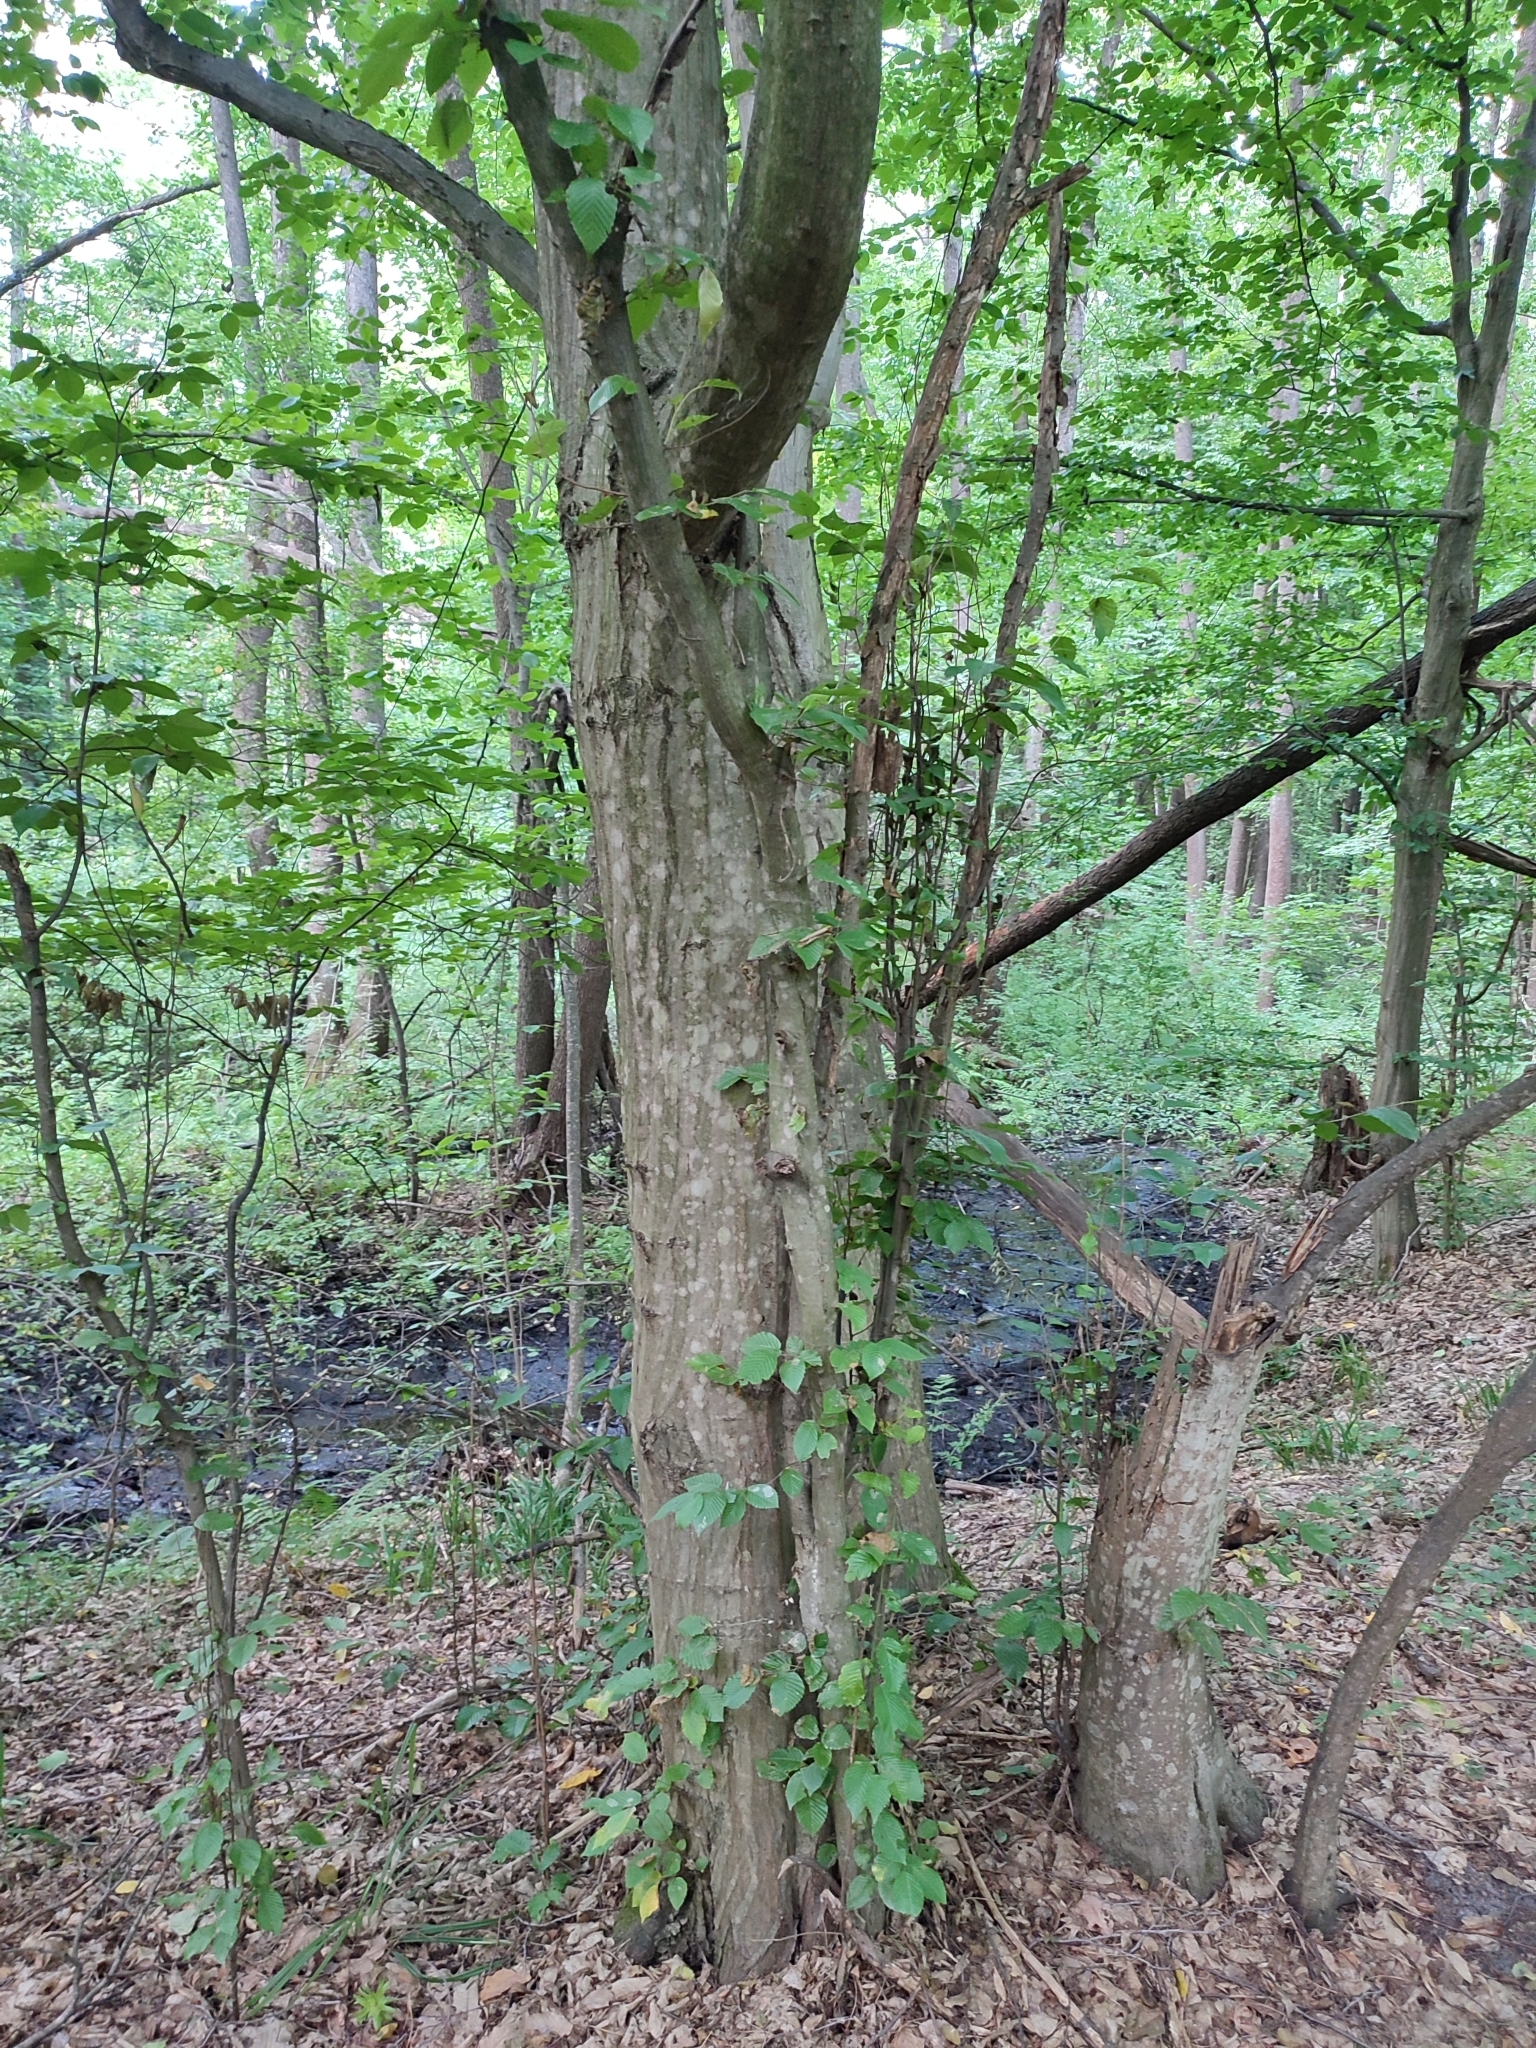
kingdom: Plantae
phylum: Tracheophyta
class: Magnoliopsida
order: Fagales
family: Betulaceae
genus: Carpinus
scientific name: Carpinus betulus
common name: Hornbeam
